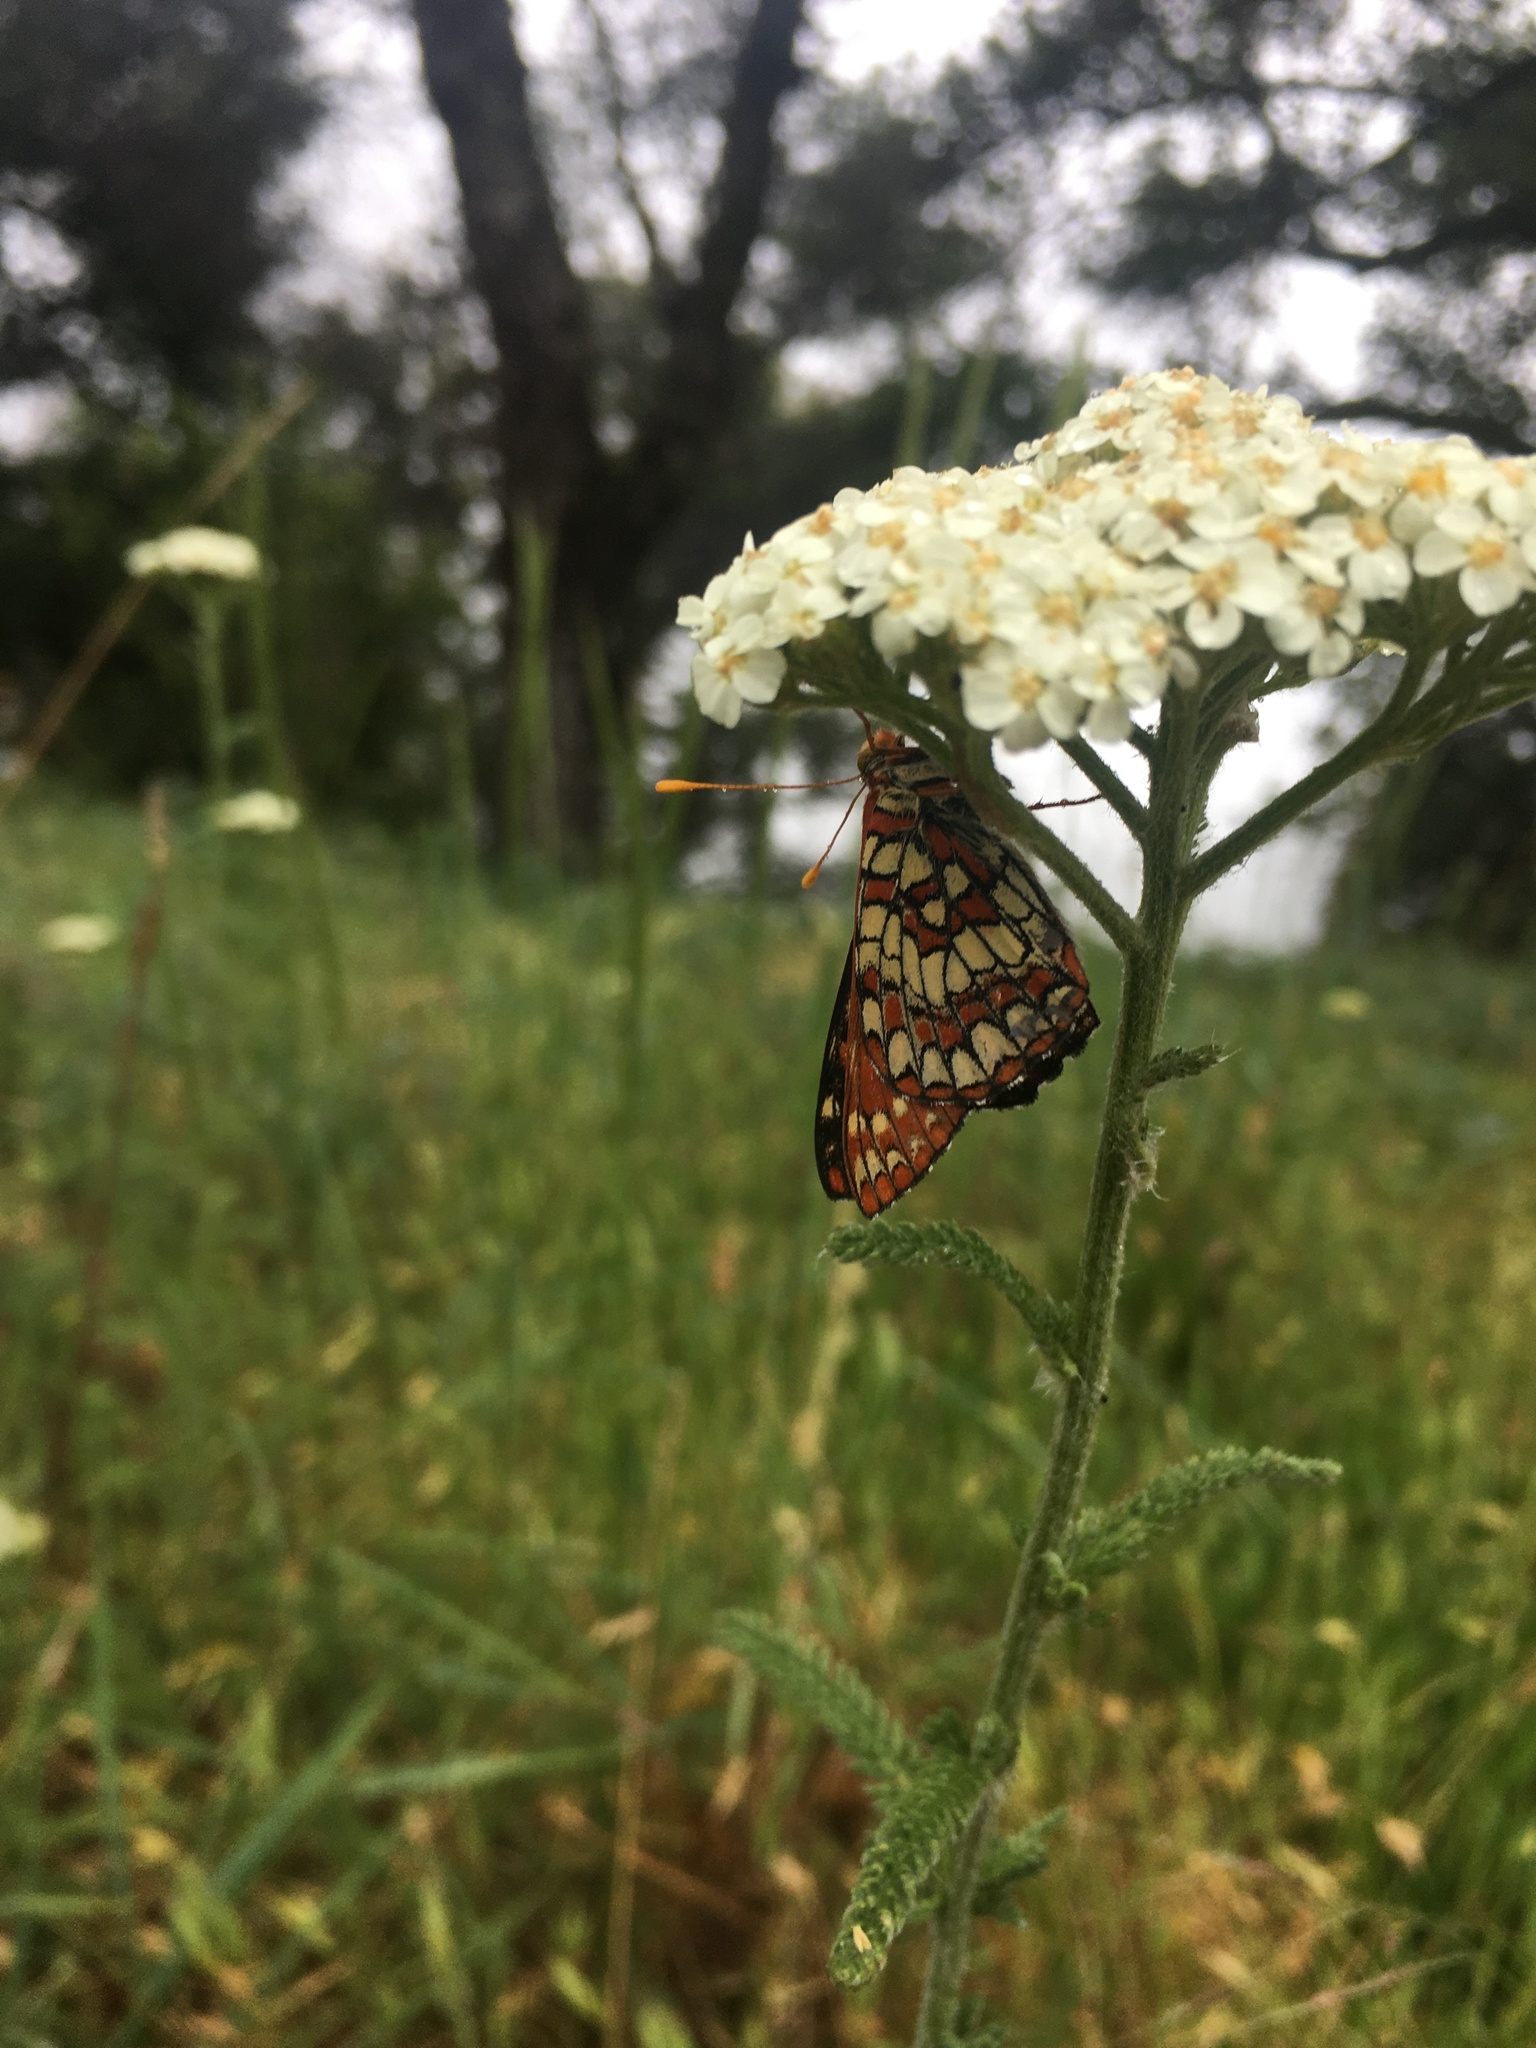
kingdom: Animalia
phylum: Arthropoda
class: Insecta
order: Lepidoptera
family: Nymphalidae
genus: Occidryas
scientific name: Occidryas chalcedona
